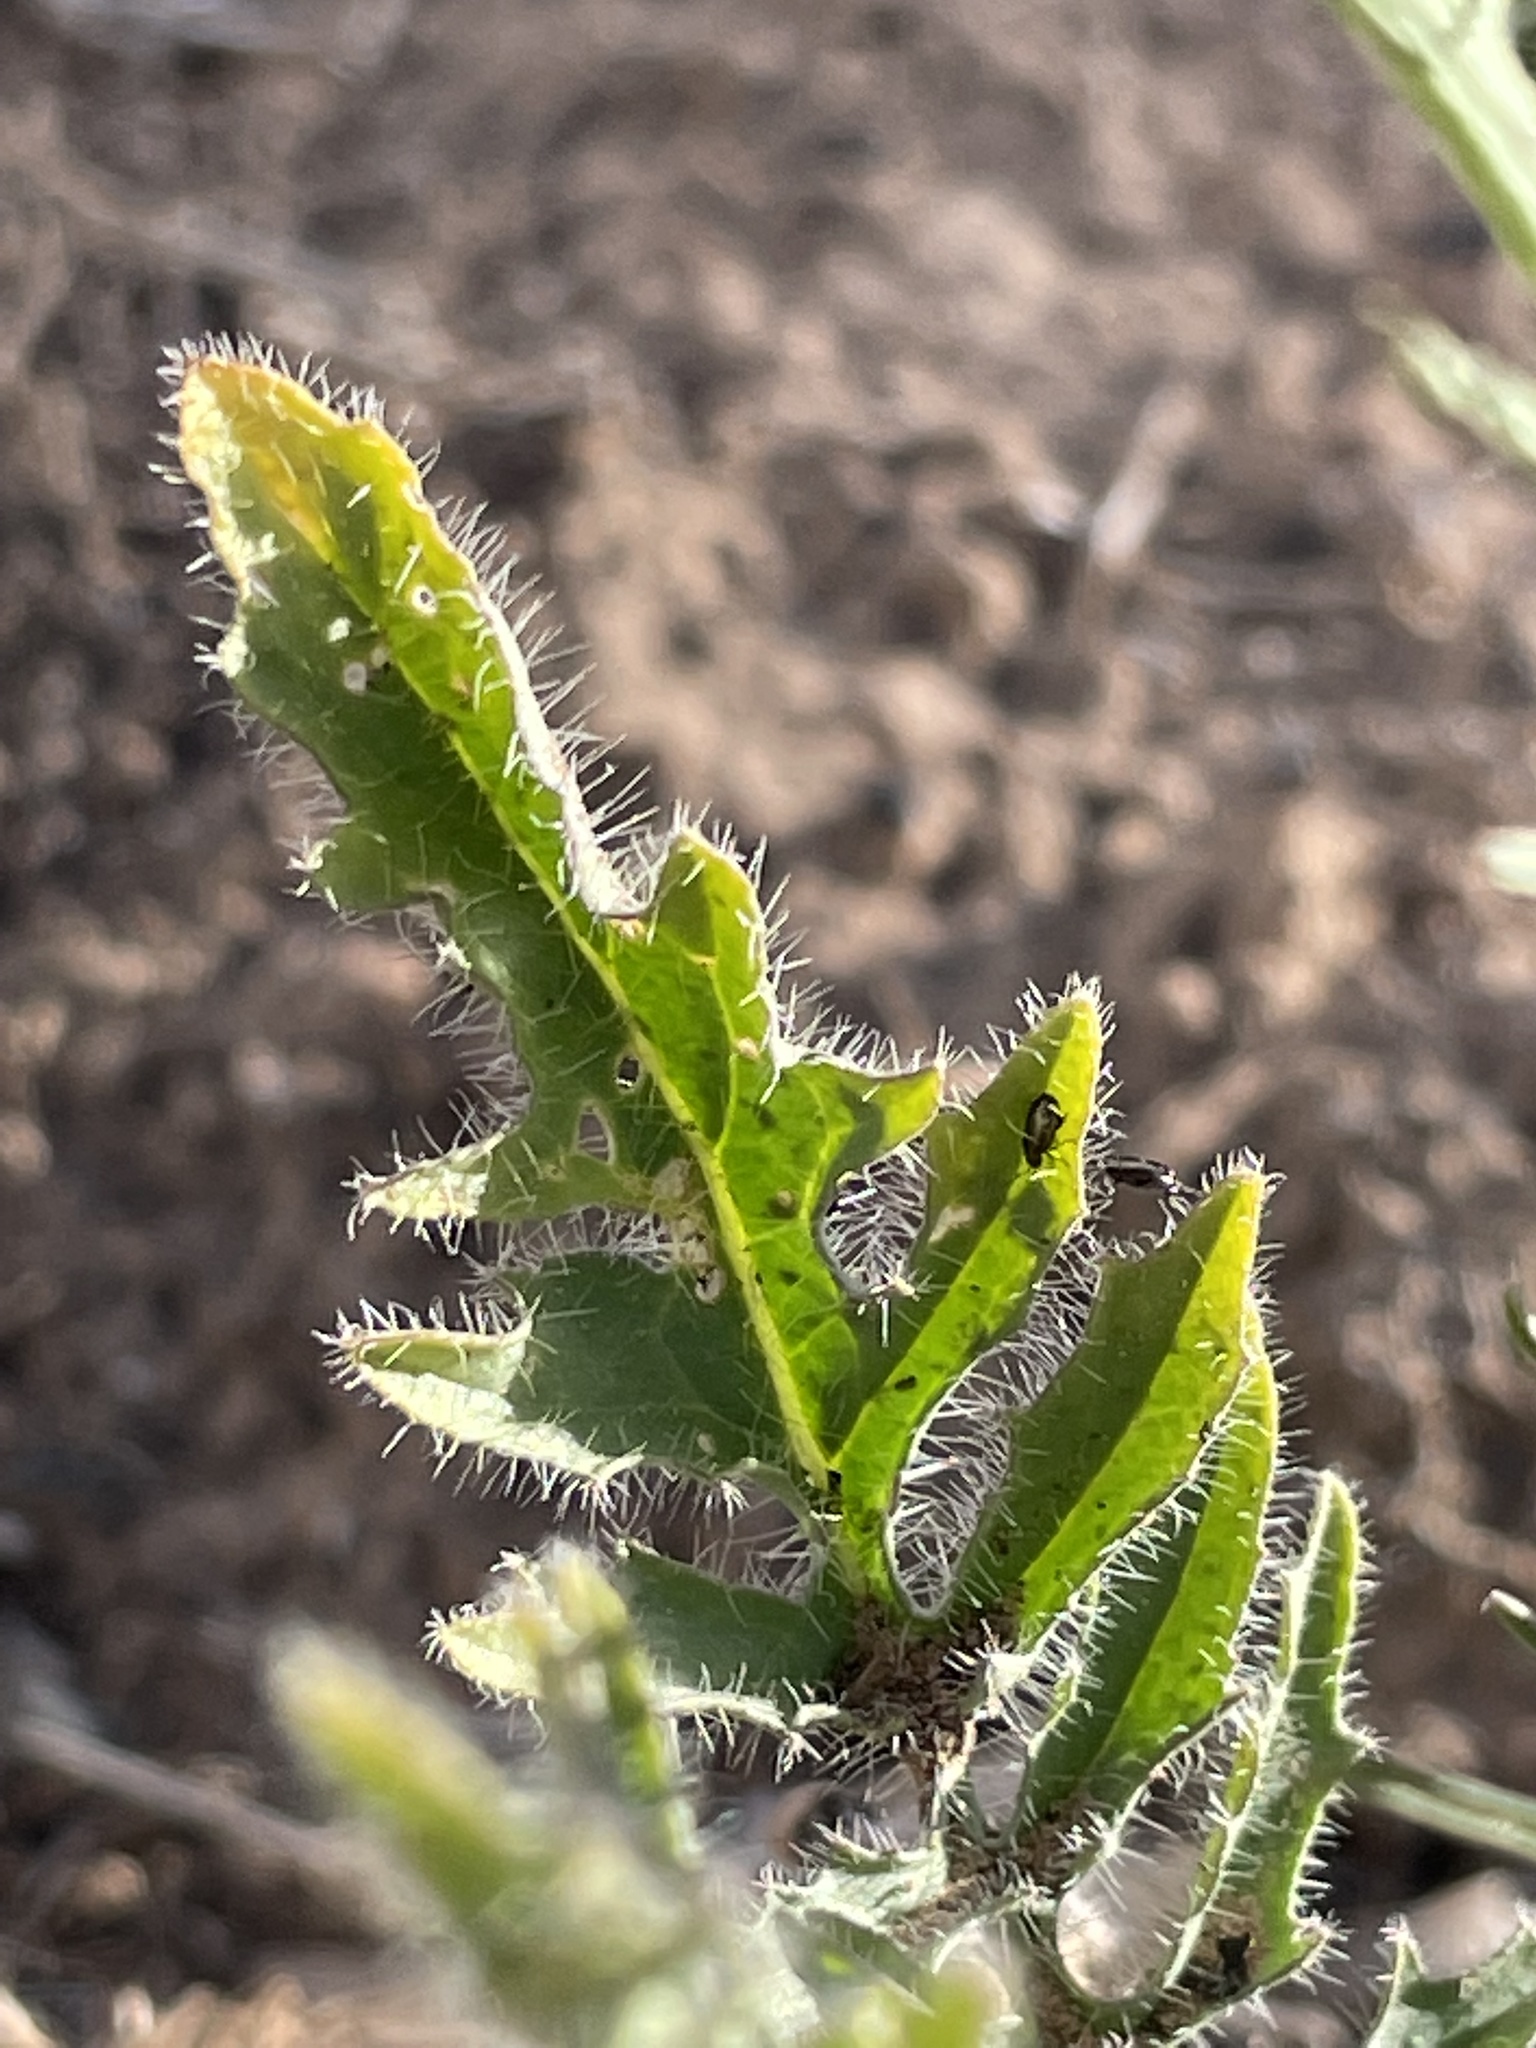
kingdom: Plantae
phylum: Tracheophyta
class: Magnoliopsida
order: Brassicales
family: Brassicaceae
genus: Sisymbrium
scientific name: Sisymbrium altissimum
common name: Tall rocket
